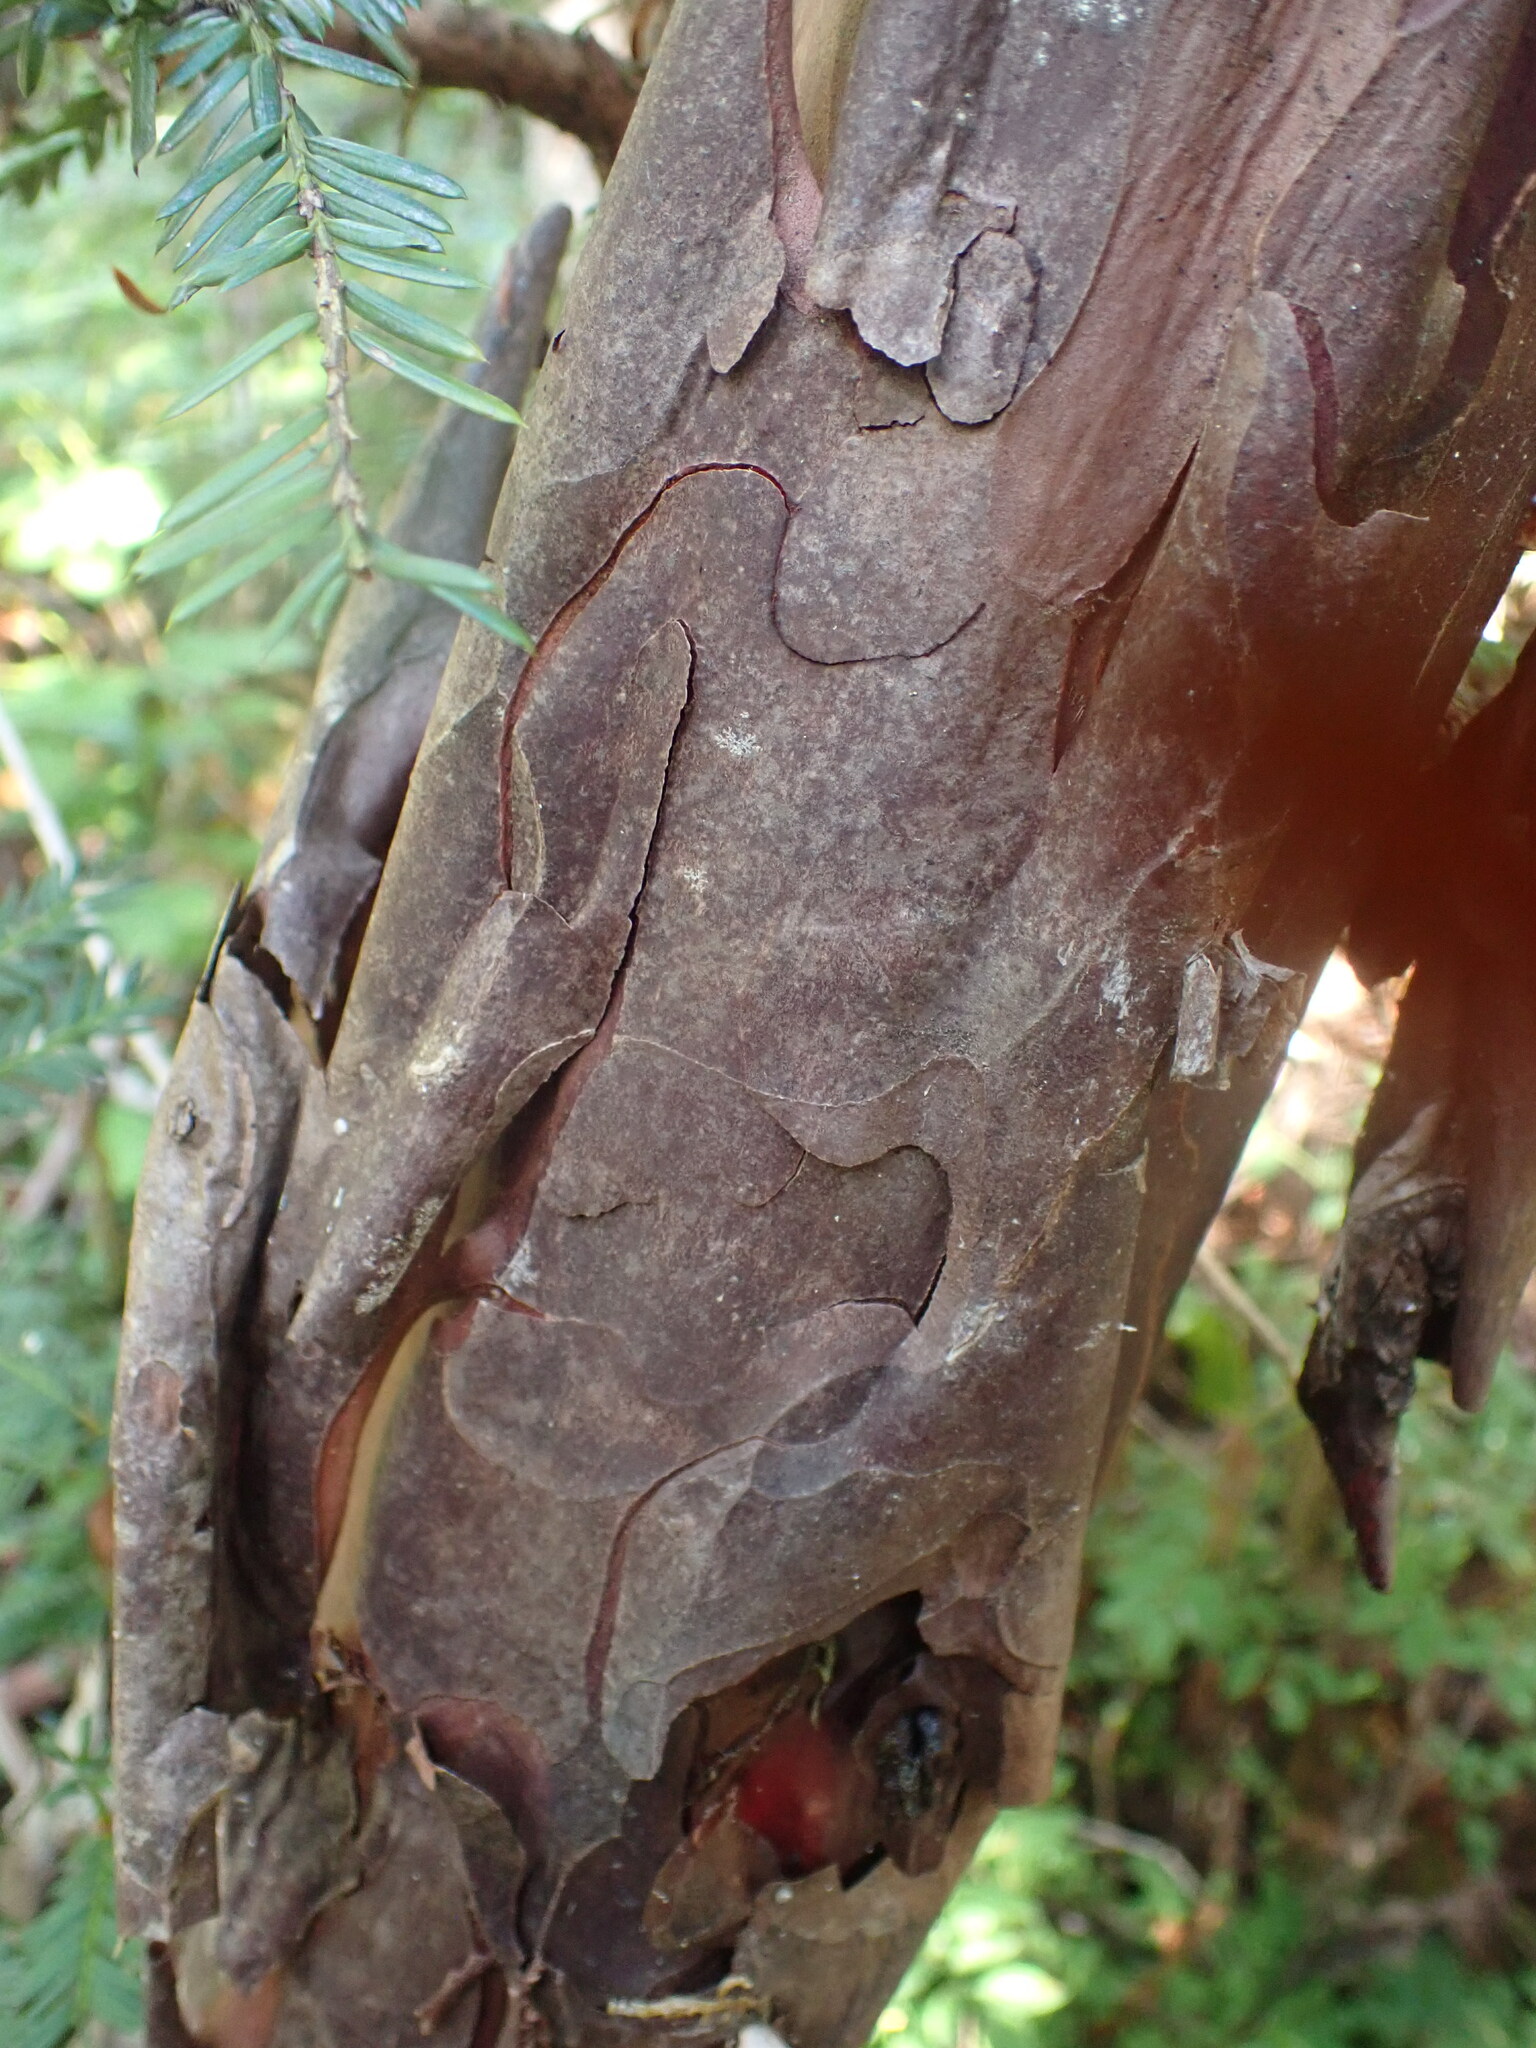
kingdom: Plantae
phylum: Tracheophyta
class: Pinopsida
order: Pinales
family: Taxaceae
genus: Taxus
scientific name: Taxus brevifolia
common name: Pacific yew
